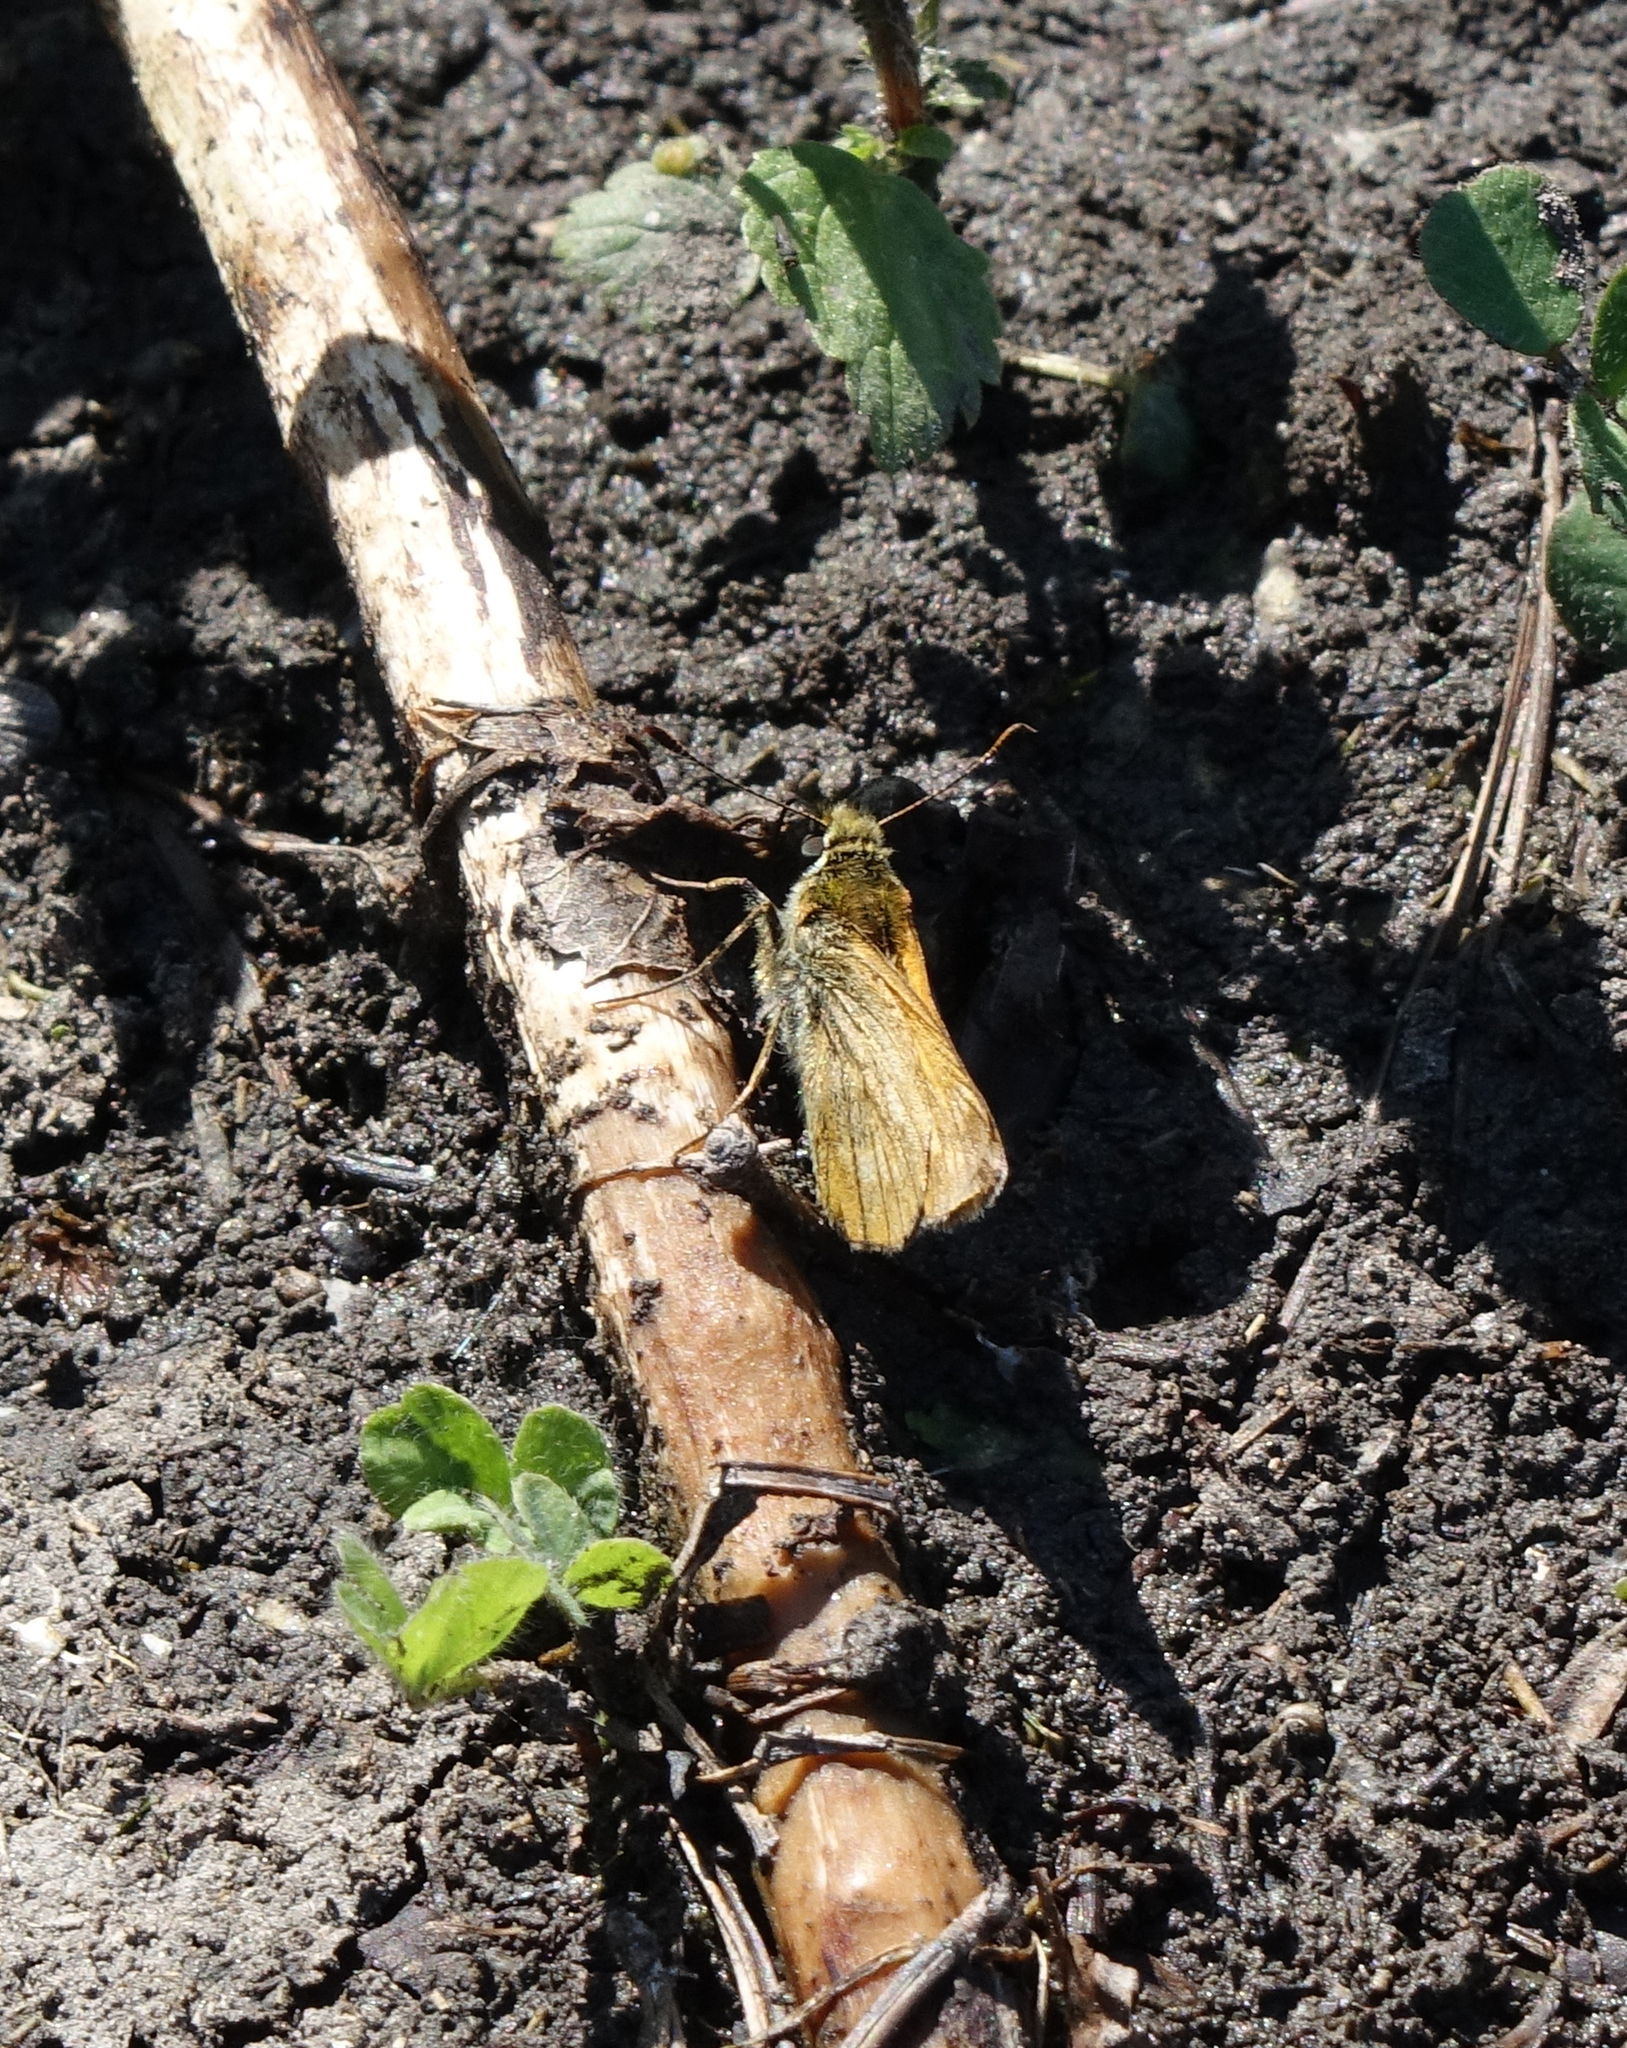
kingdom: Animalia
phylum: Arthropoda
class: Insecta
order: Lepidoptera
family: Hesperiidae
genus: Ochlodes
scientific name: Ochlodes venata
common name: Large skipper
